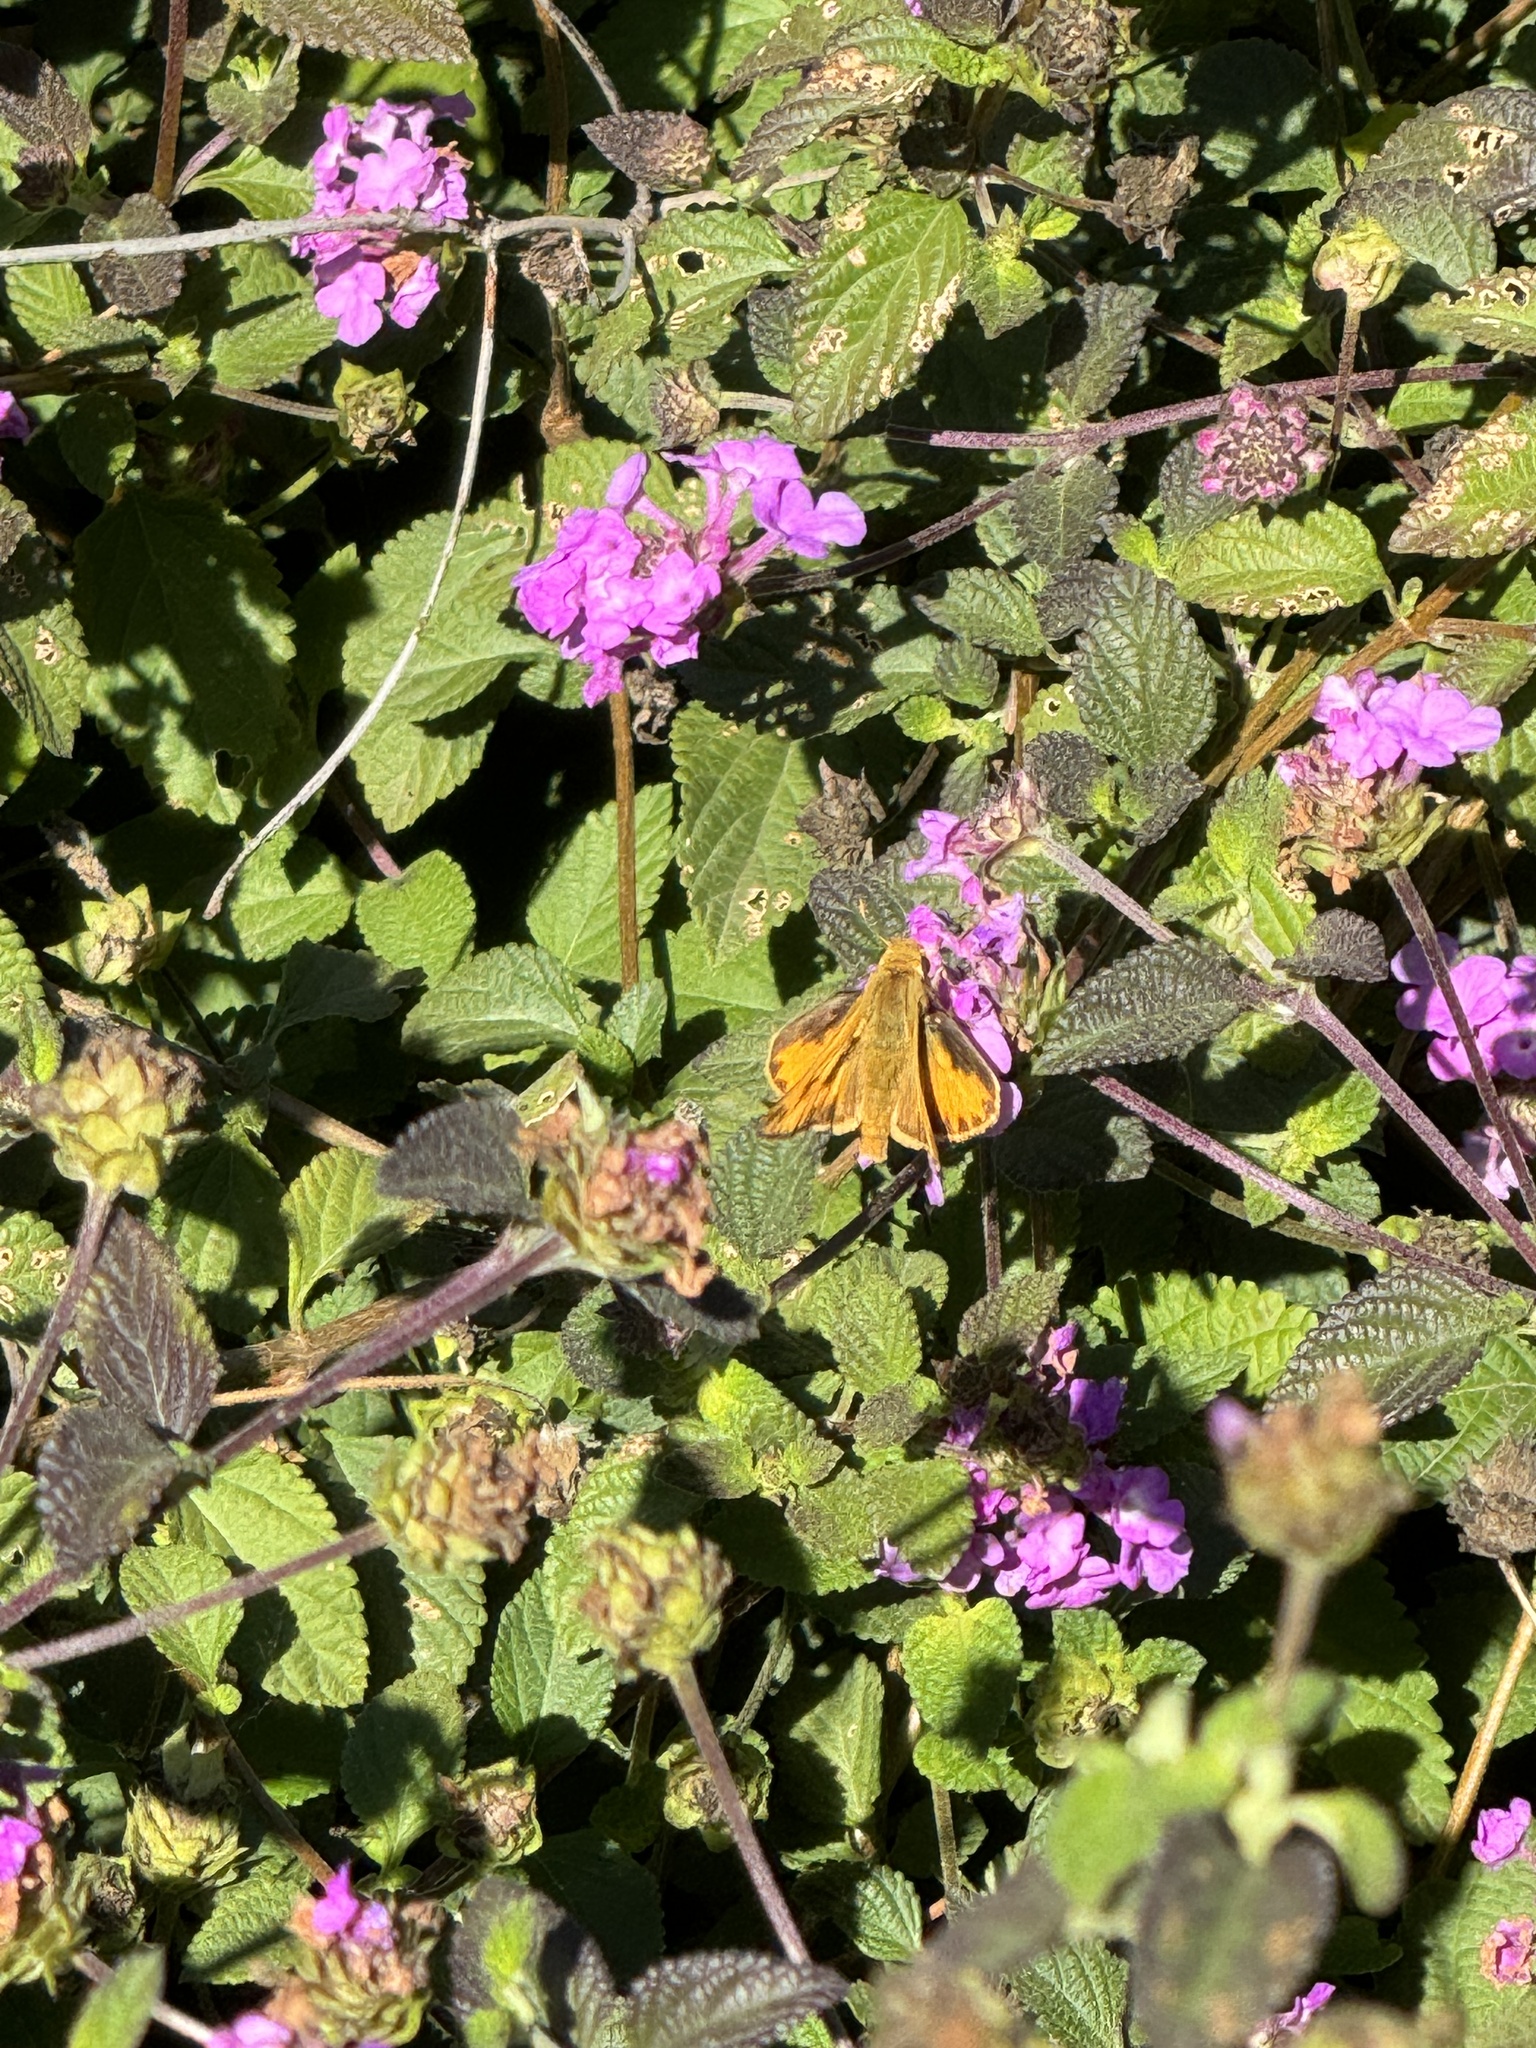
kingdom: Animalia
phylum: Arthropoda
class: Insecta
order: Lepidoptera
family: Hesperiidae
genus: Hylephila
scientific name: Hylephila phyleus
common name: Fiery skipper
